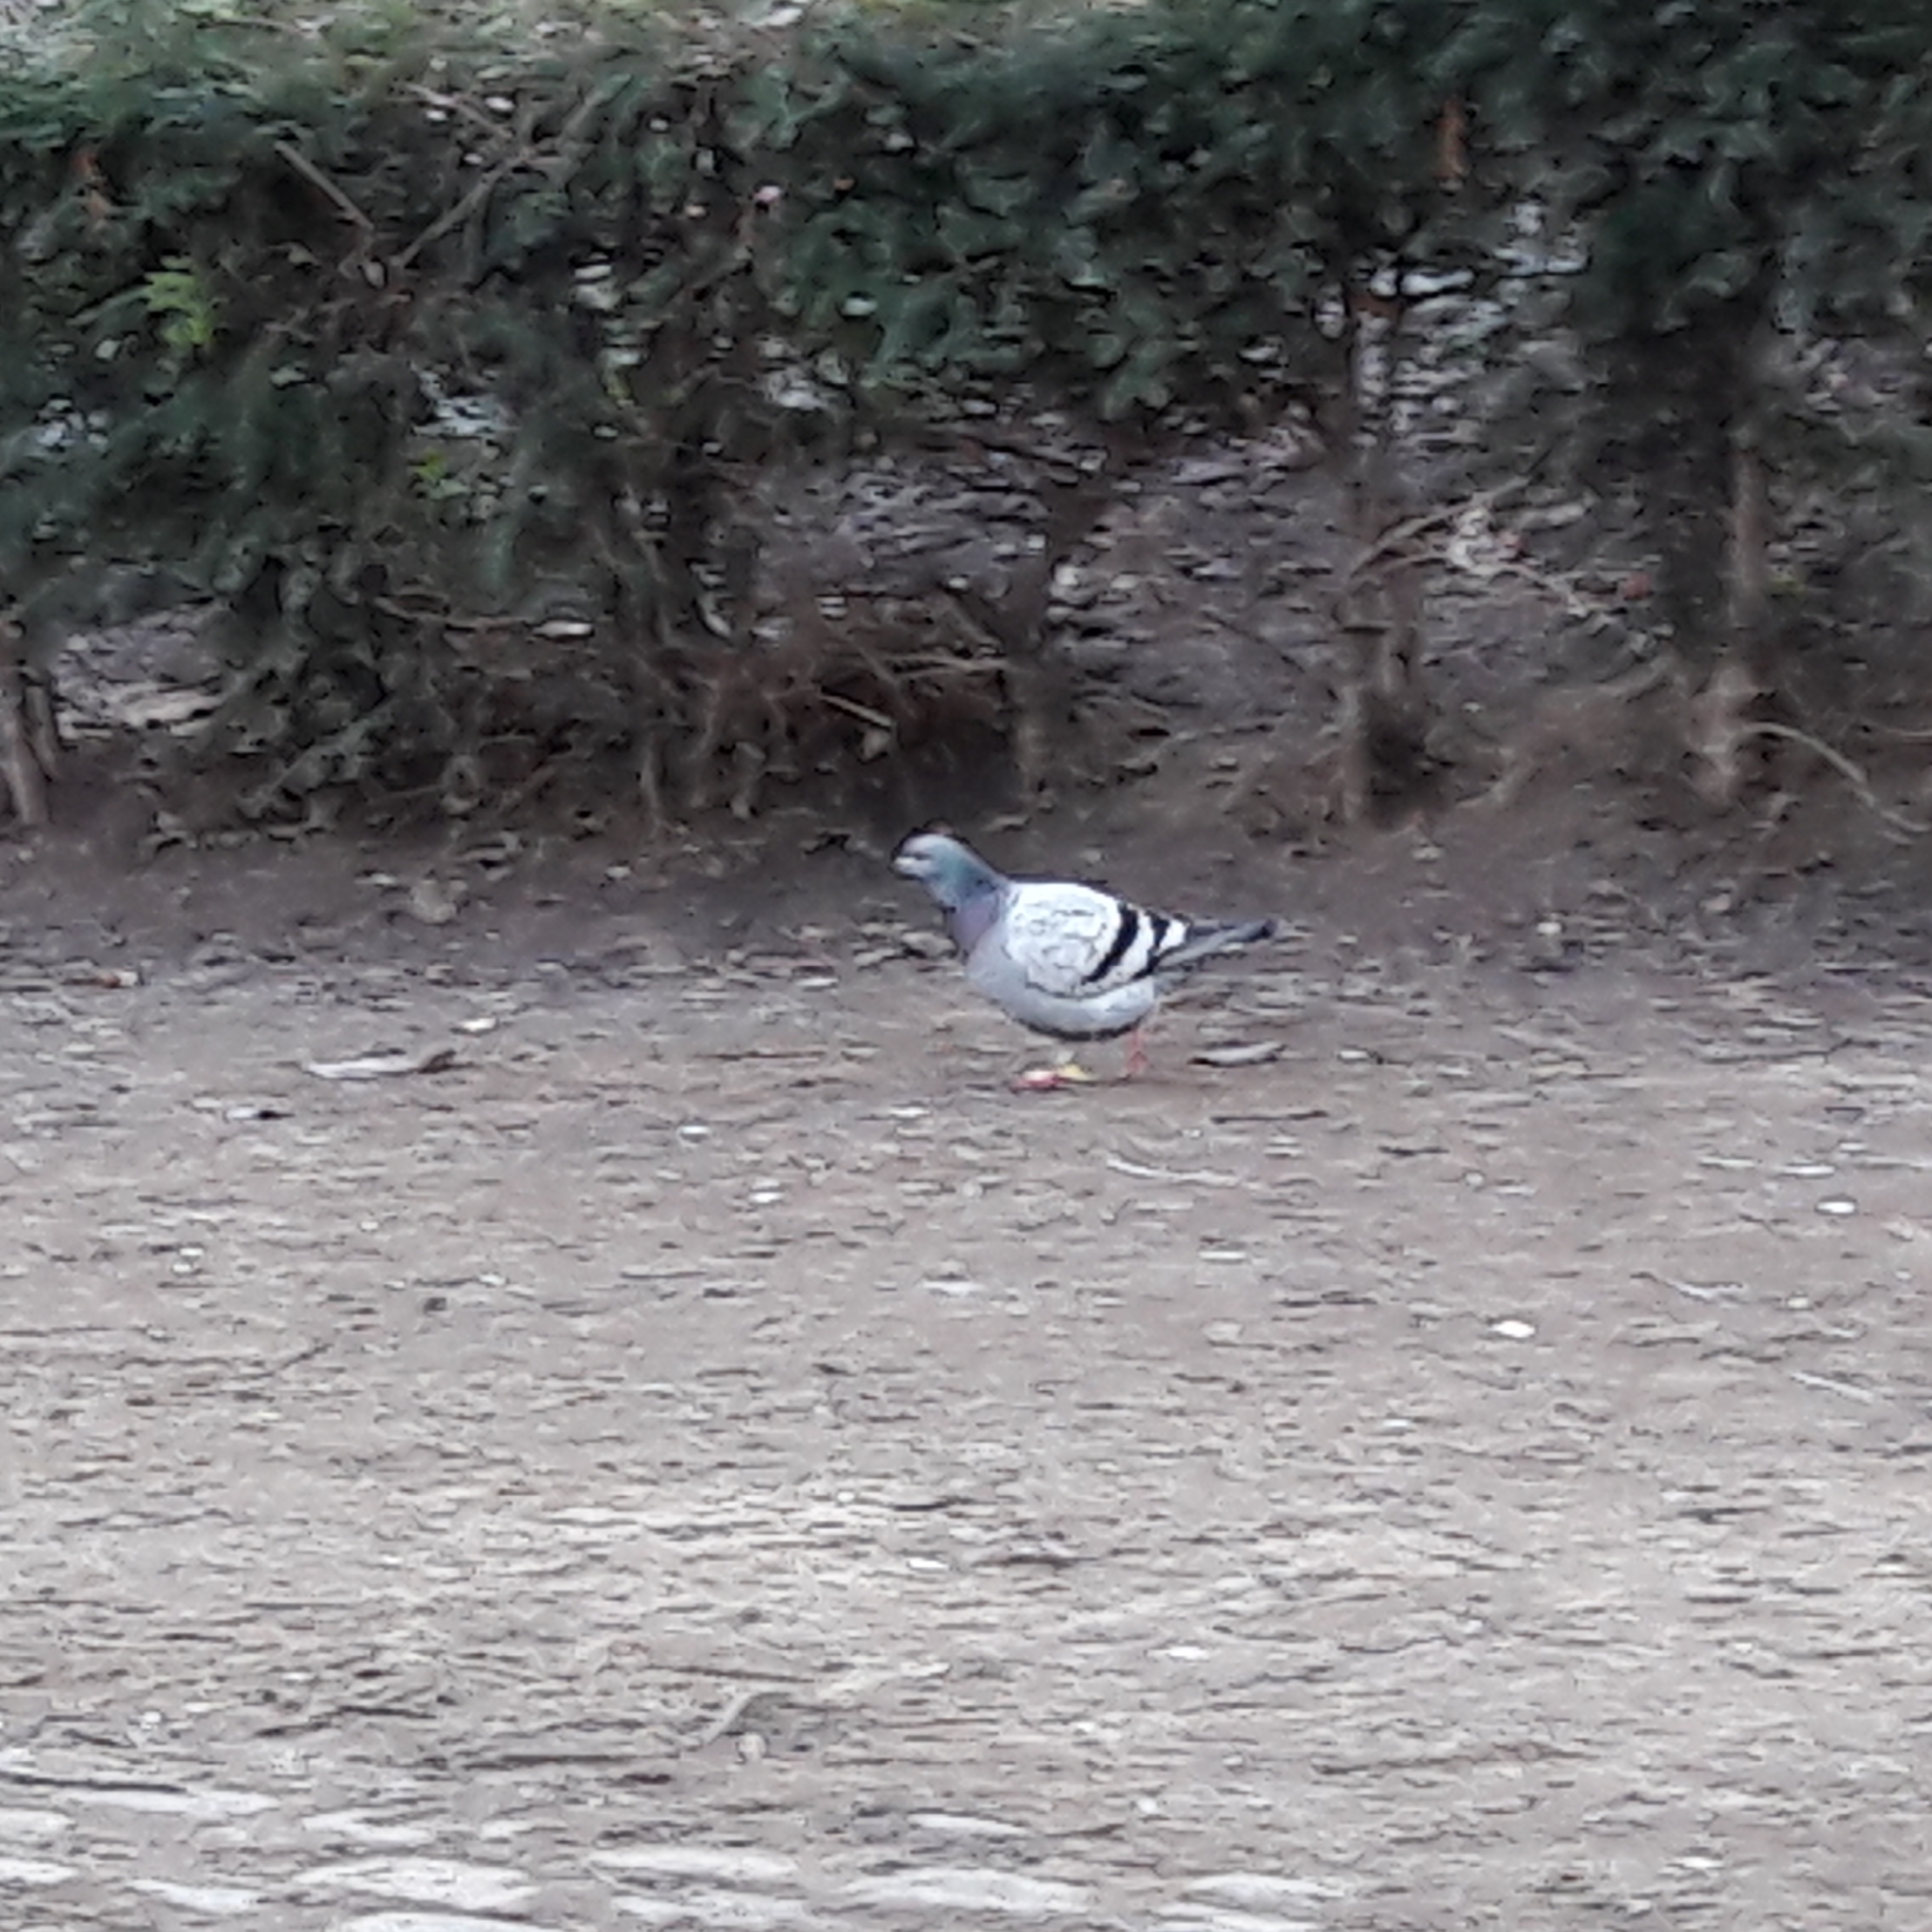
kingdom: Animalia
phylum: Chordata
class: Aves
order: Columbiformes
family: Columbidae
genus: Columba
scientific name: Columba livia
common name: Rock pigeon
